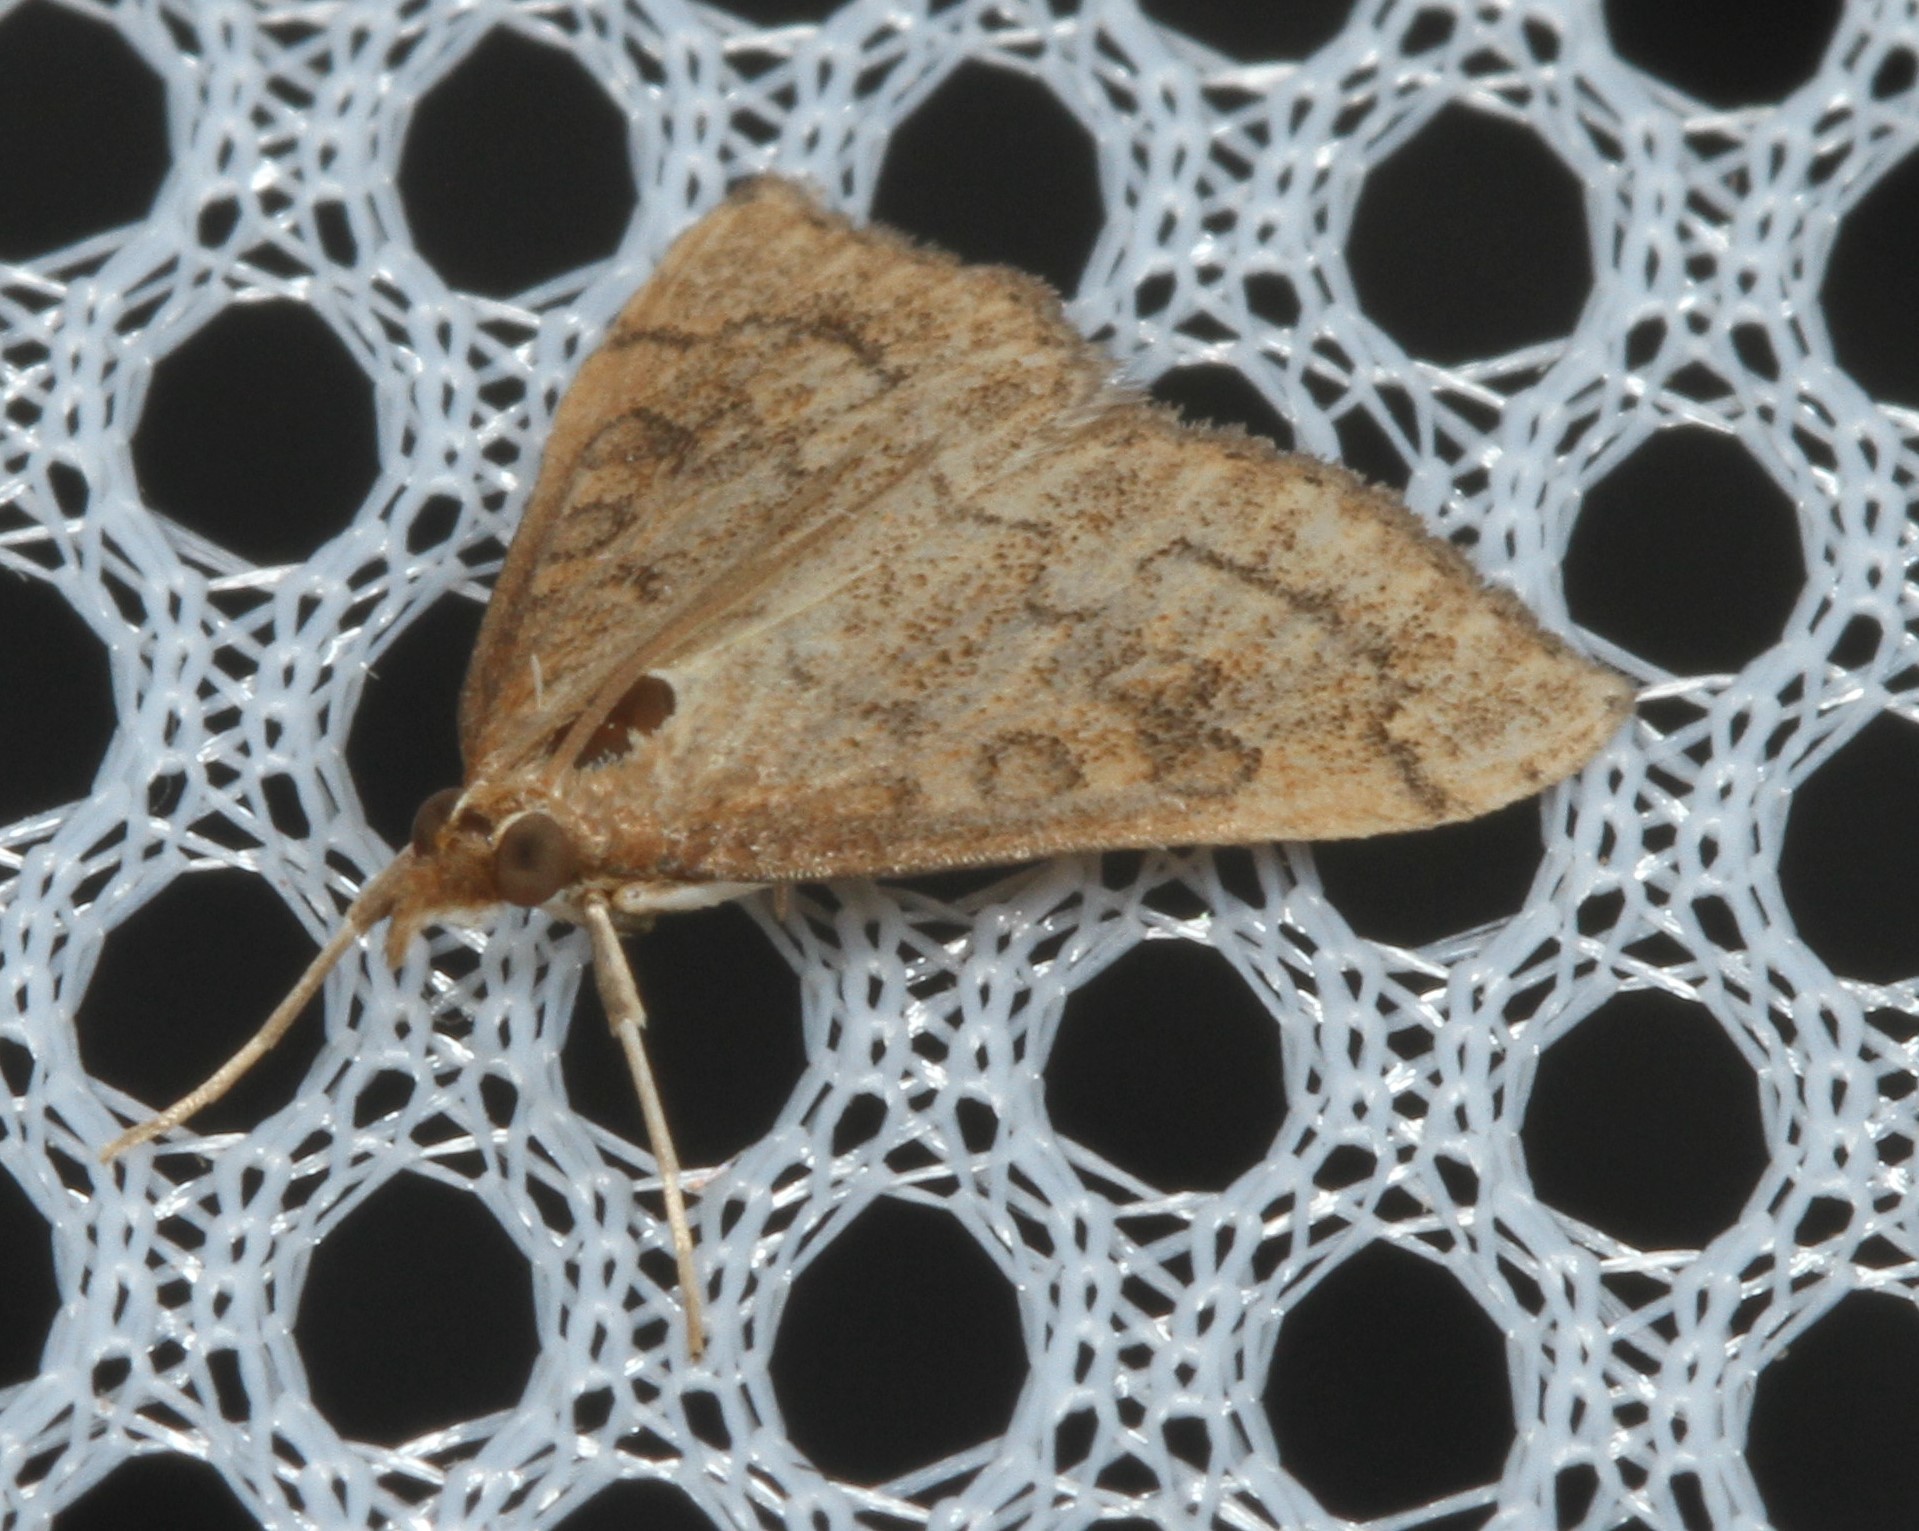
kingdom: Animalia
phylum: Arthropoda
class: Insecta
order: Lepidoptera
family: Crambidae
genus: Udea
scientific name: Udea rubigalis
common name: Celery leaftier moth
